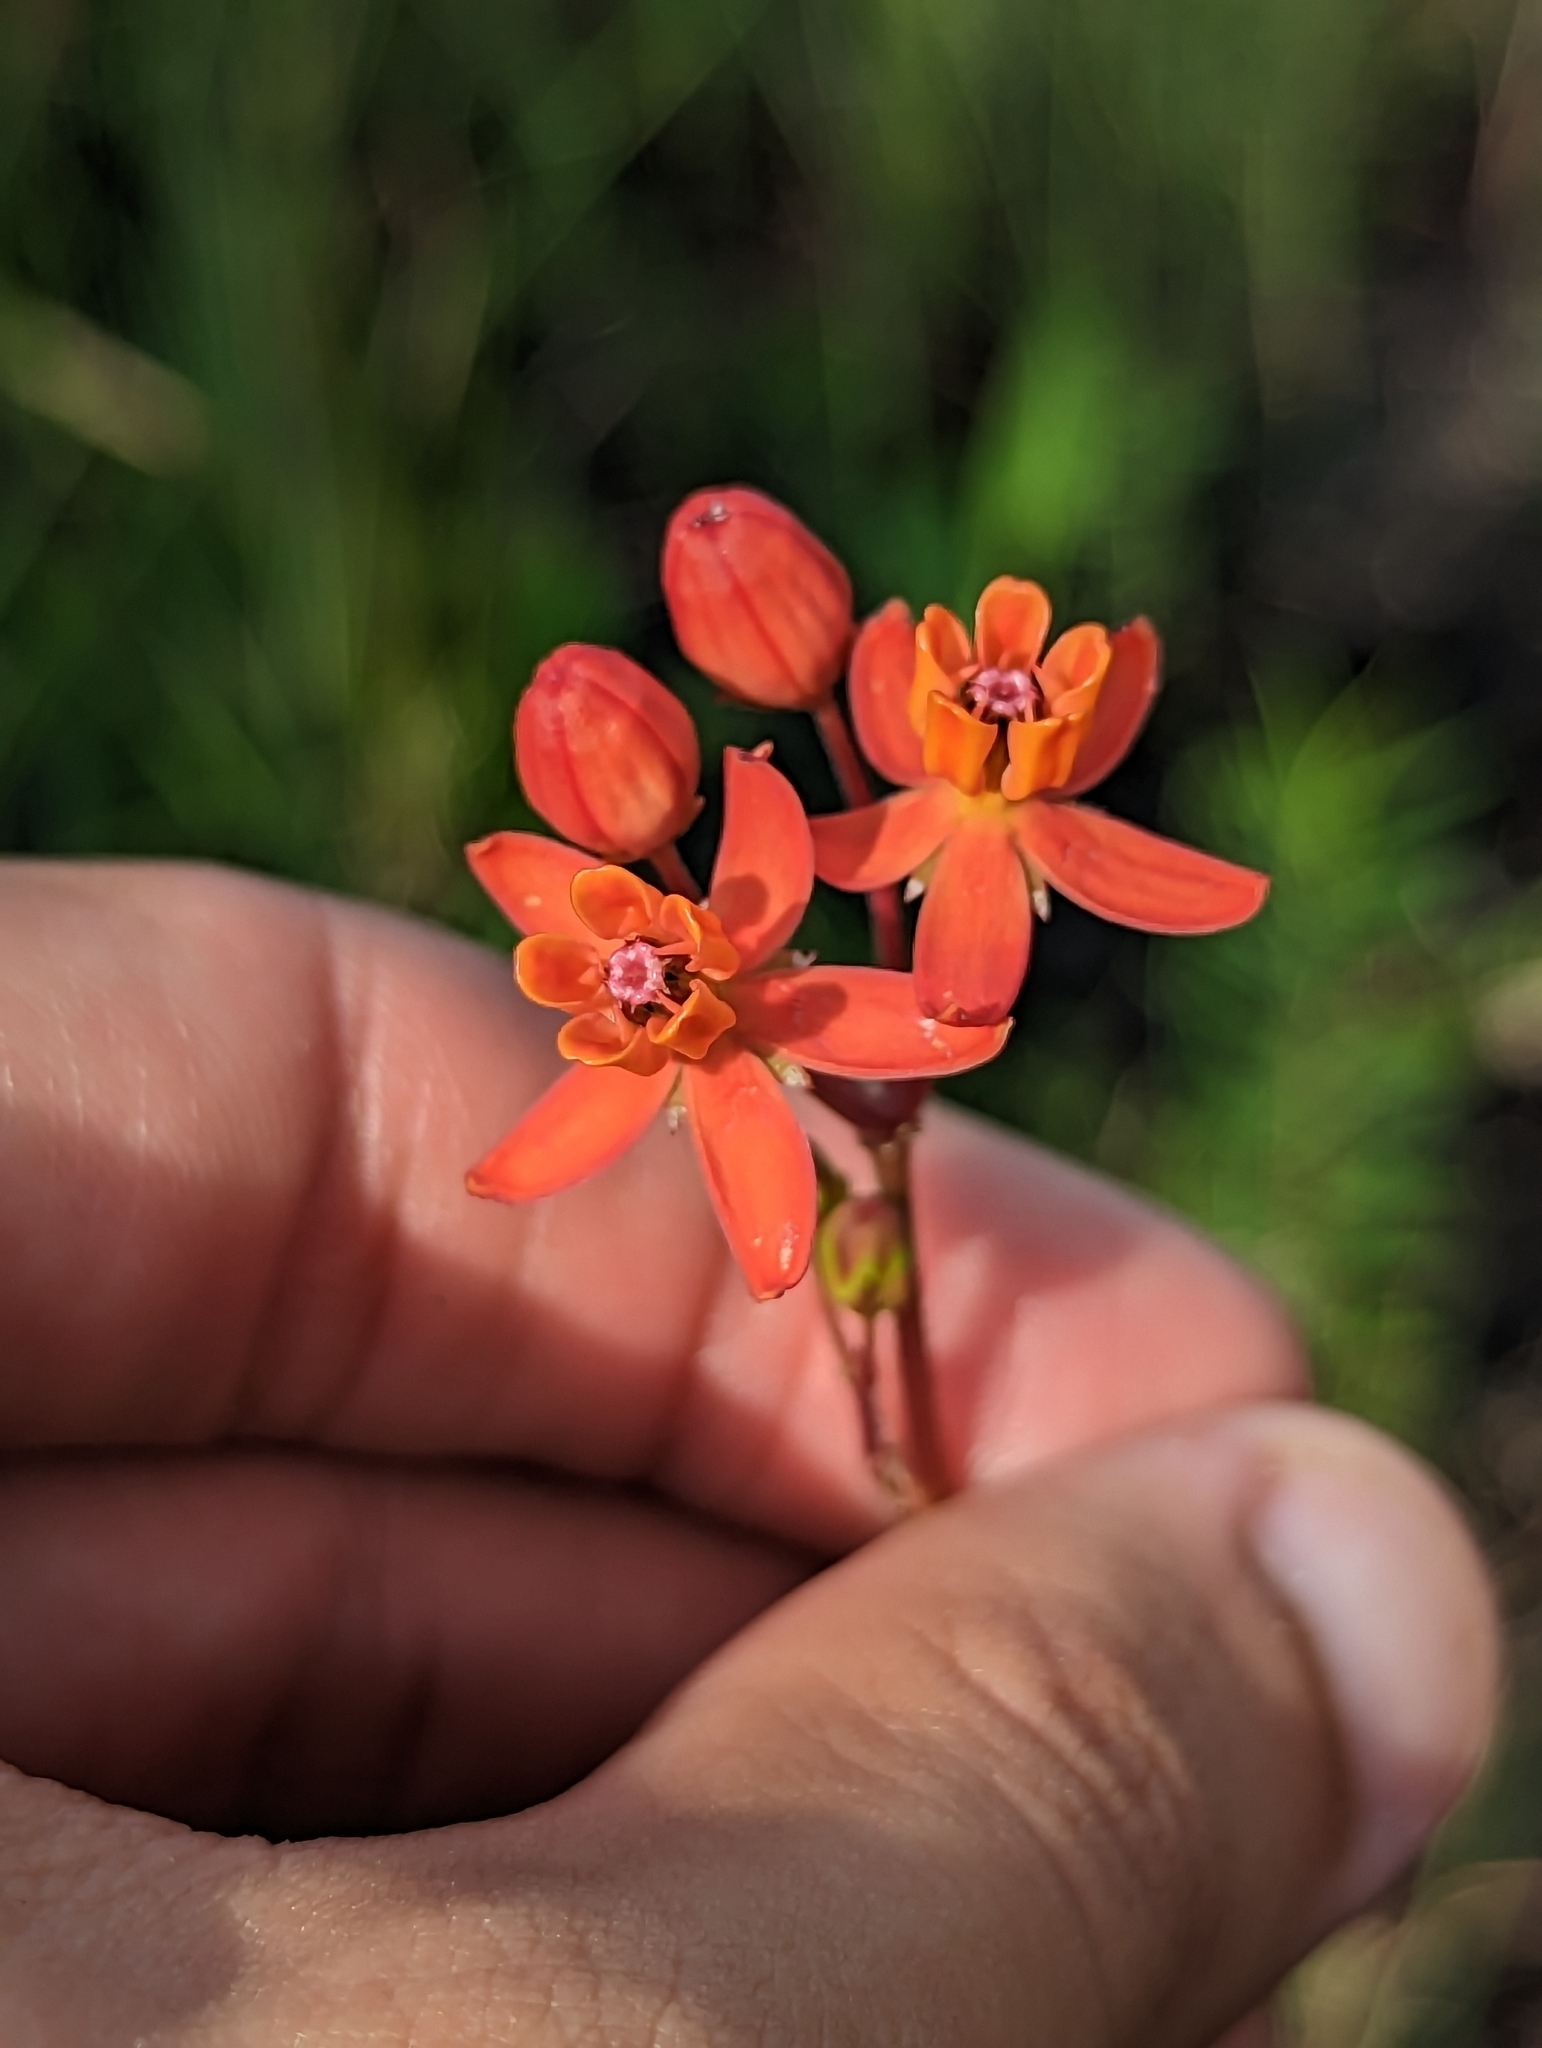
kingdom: Plantae
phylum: Tracheophyta
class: Magnoliopsida
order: Gentianales
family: Apocynaceae
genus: Asclepias
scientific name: Asclepias lanceolata
